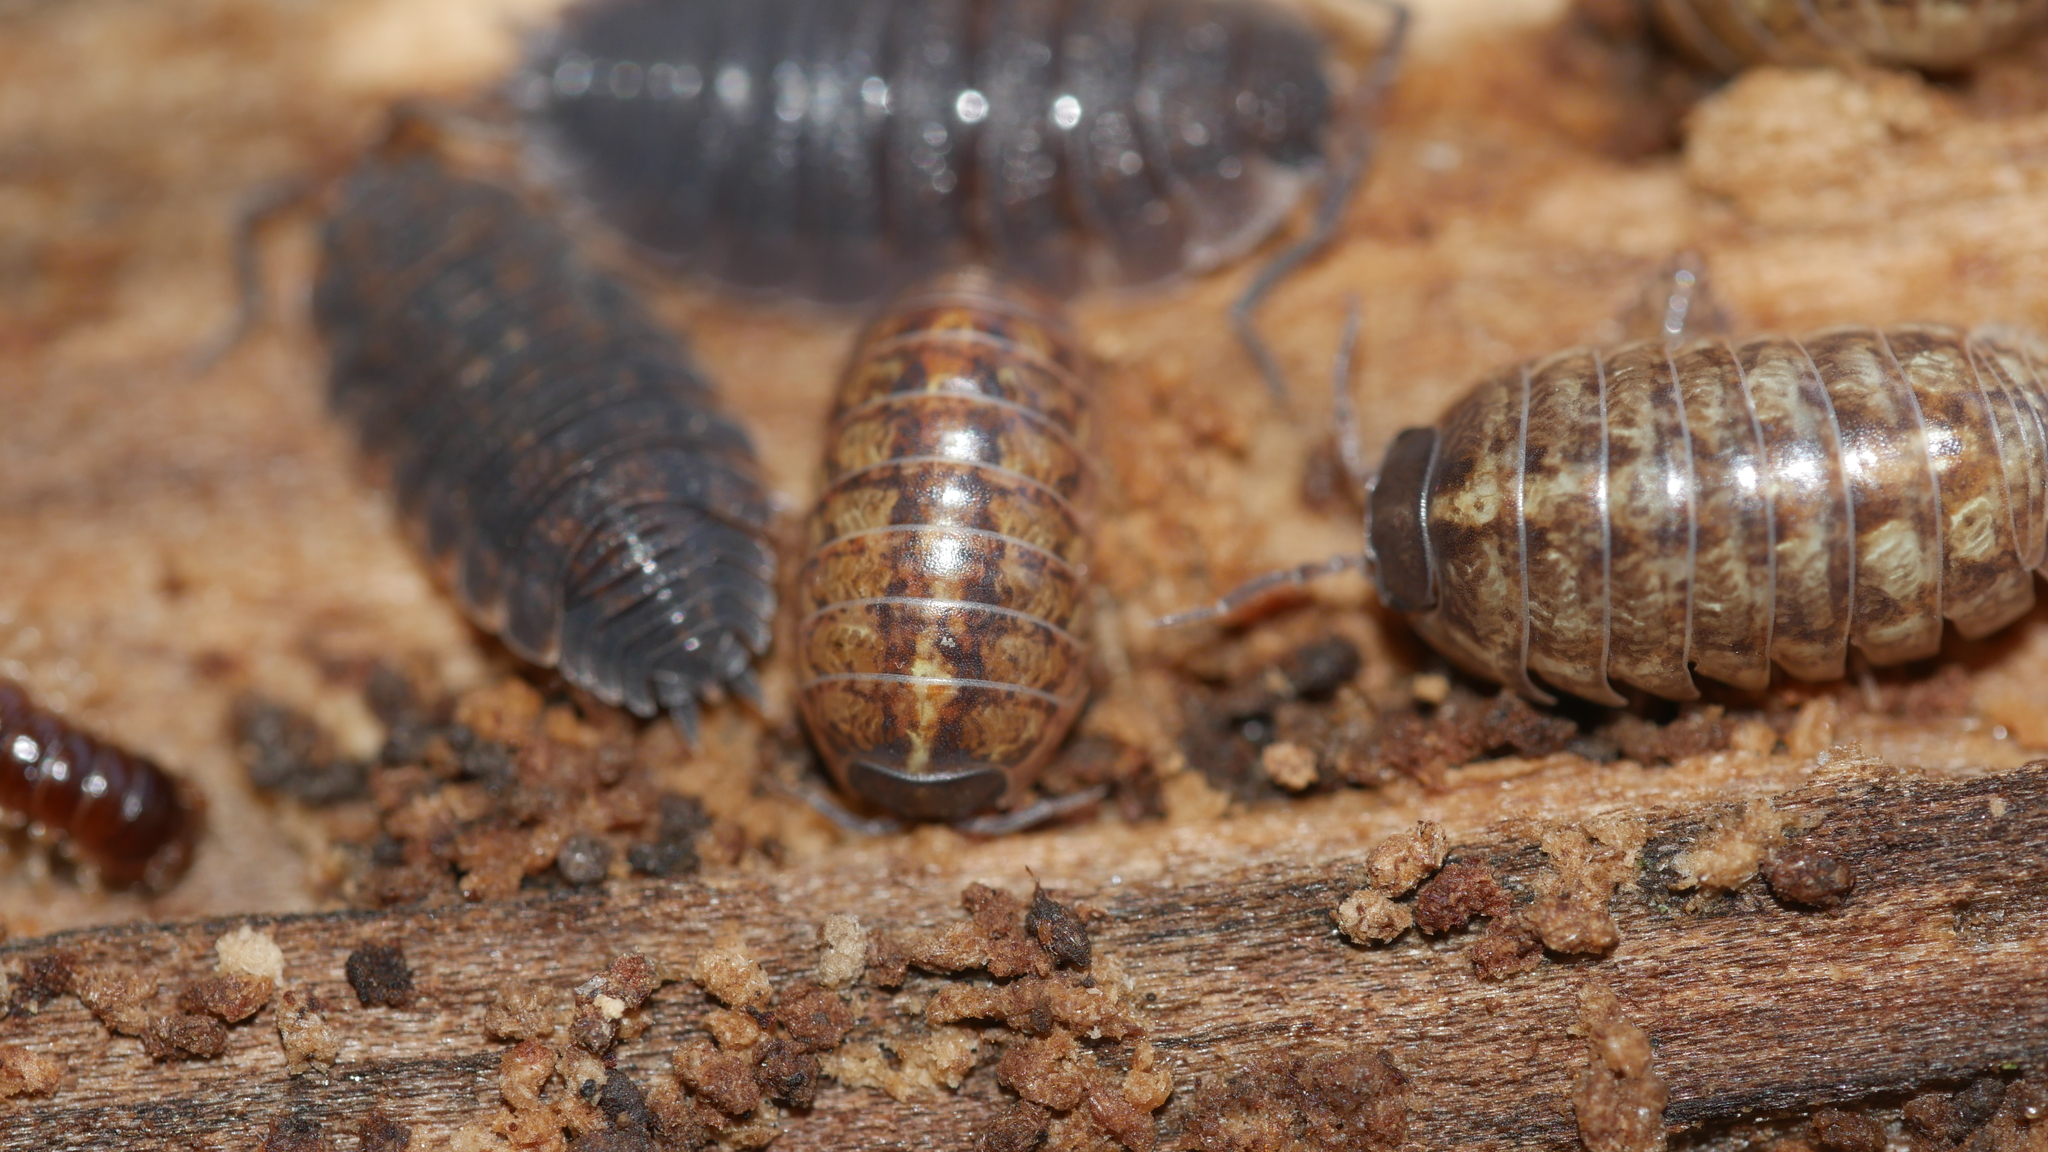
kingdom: Animalia
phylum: Arthropoda
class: Malacostraca
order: Isopoda
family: Armadillidiidae
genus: Armadillidium
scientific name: Armadillidium vulgare
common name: Common pill woodlouse
